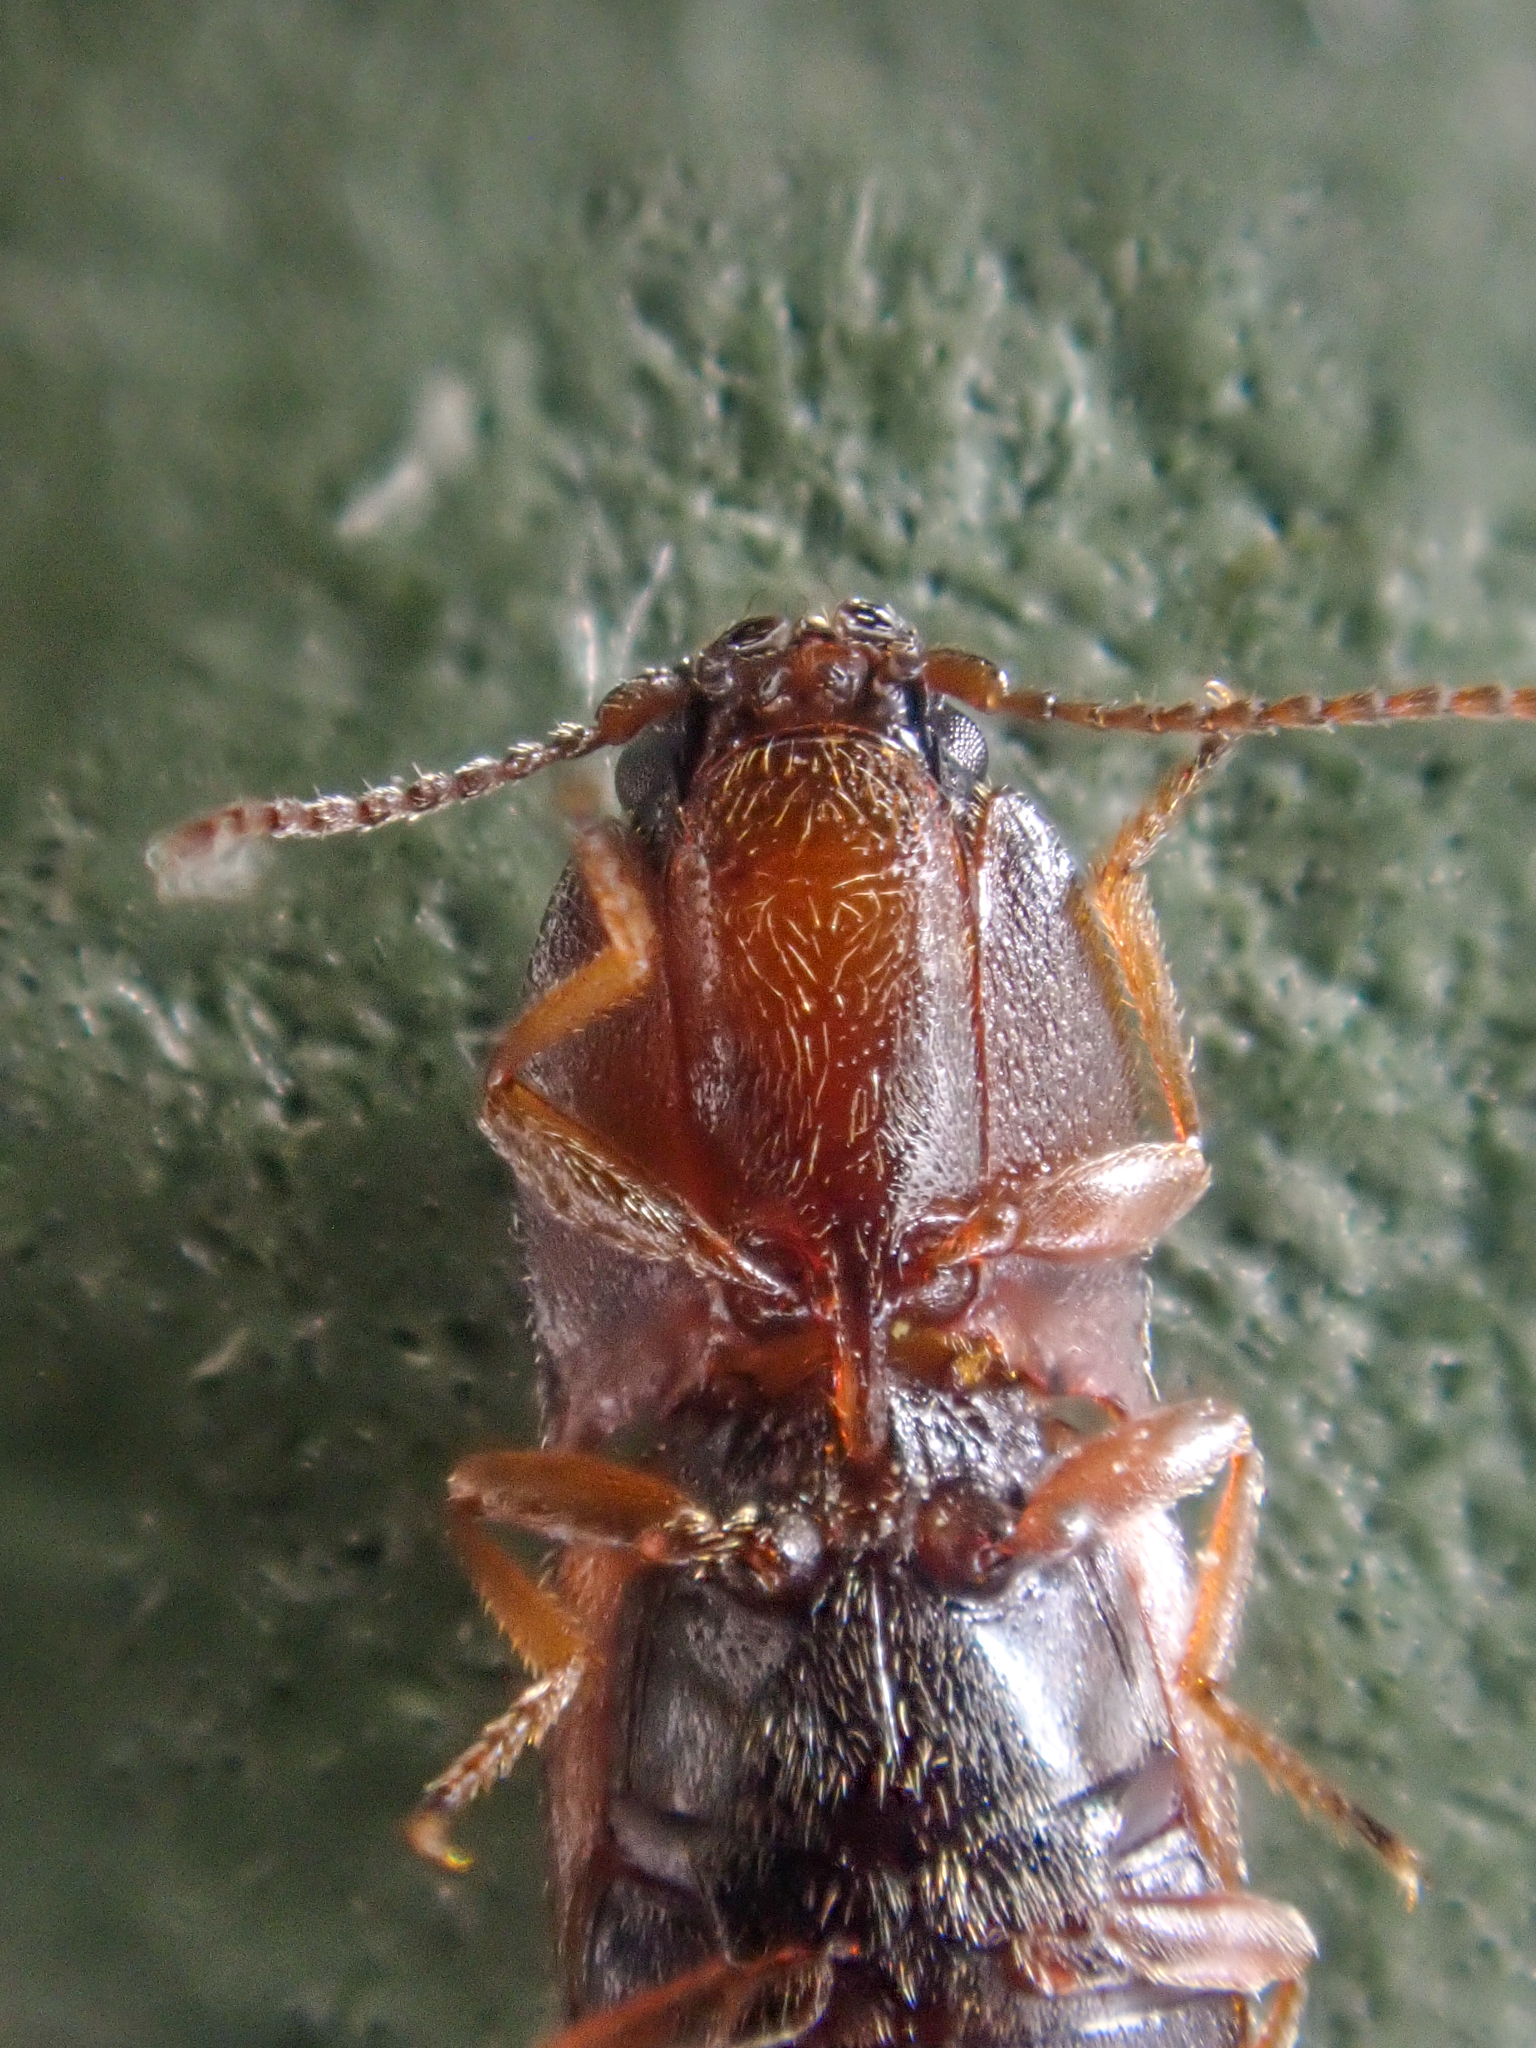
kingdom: Animalia
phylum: Arthropoda
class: Insecta
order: Coleoptera
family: Elateridae
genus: Hypnoidus
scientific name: Hypnoidus bicolor
